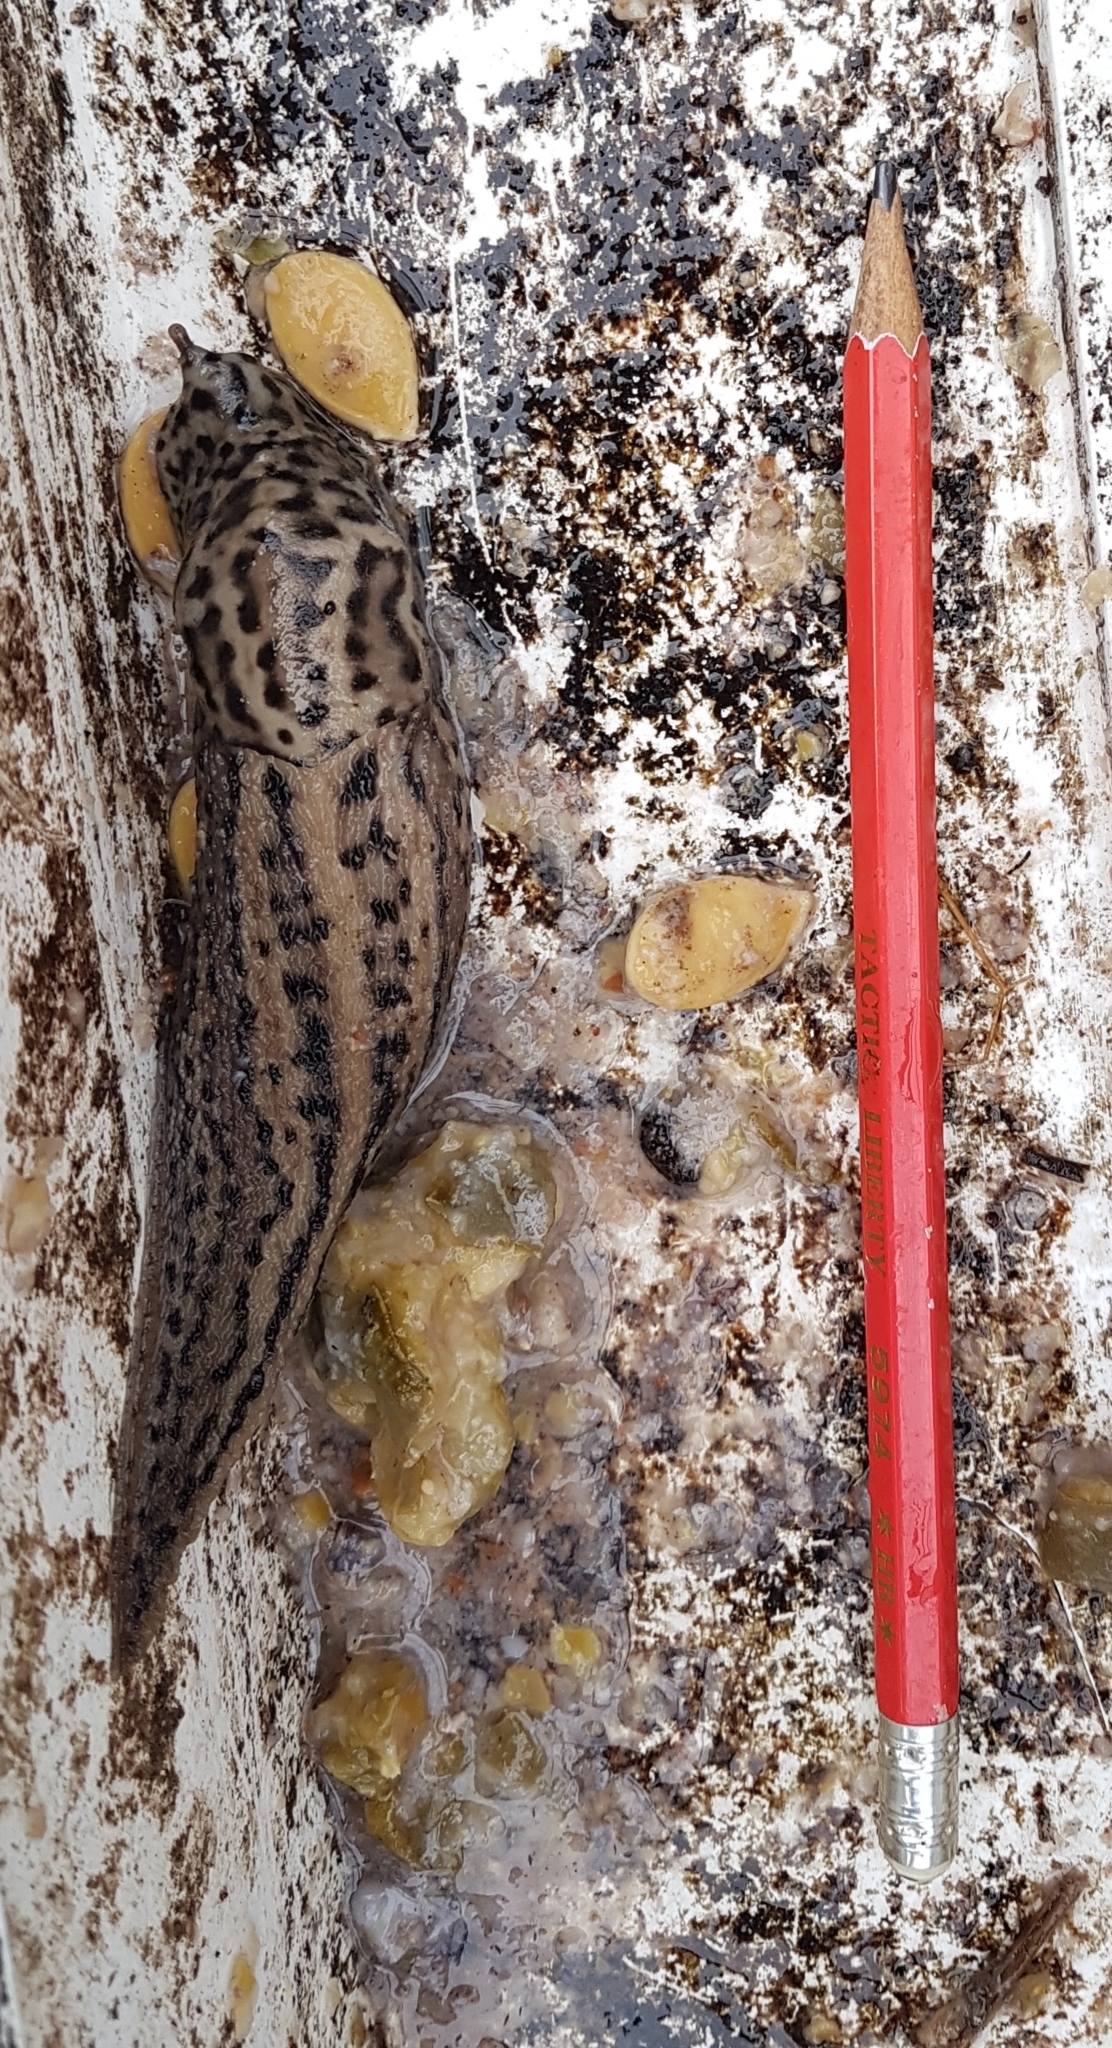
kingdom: Animalia
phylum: Mollusca
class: Gastropoda
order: Stylommatophora
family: Limacidae
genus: Limax
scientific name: Limax maximus
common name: Great grey slug
